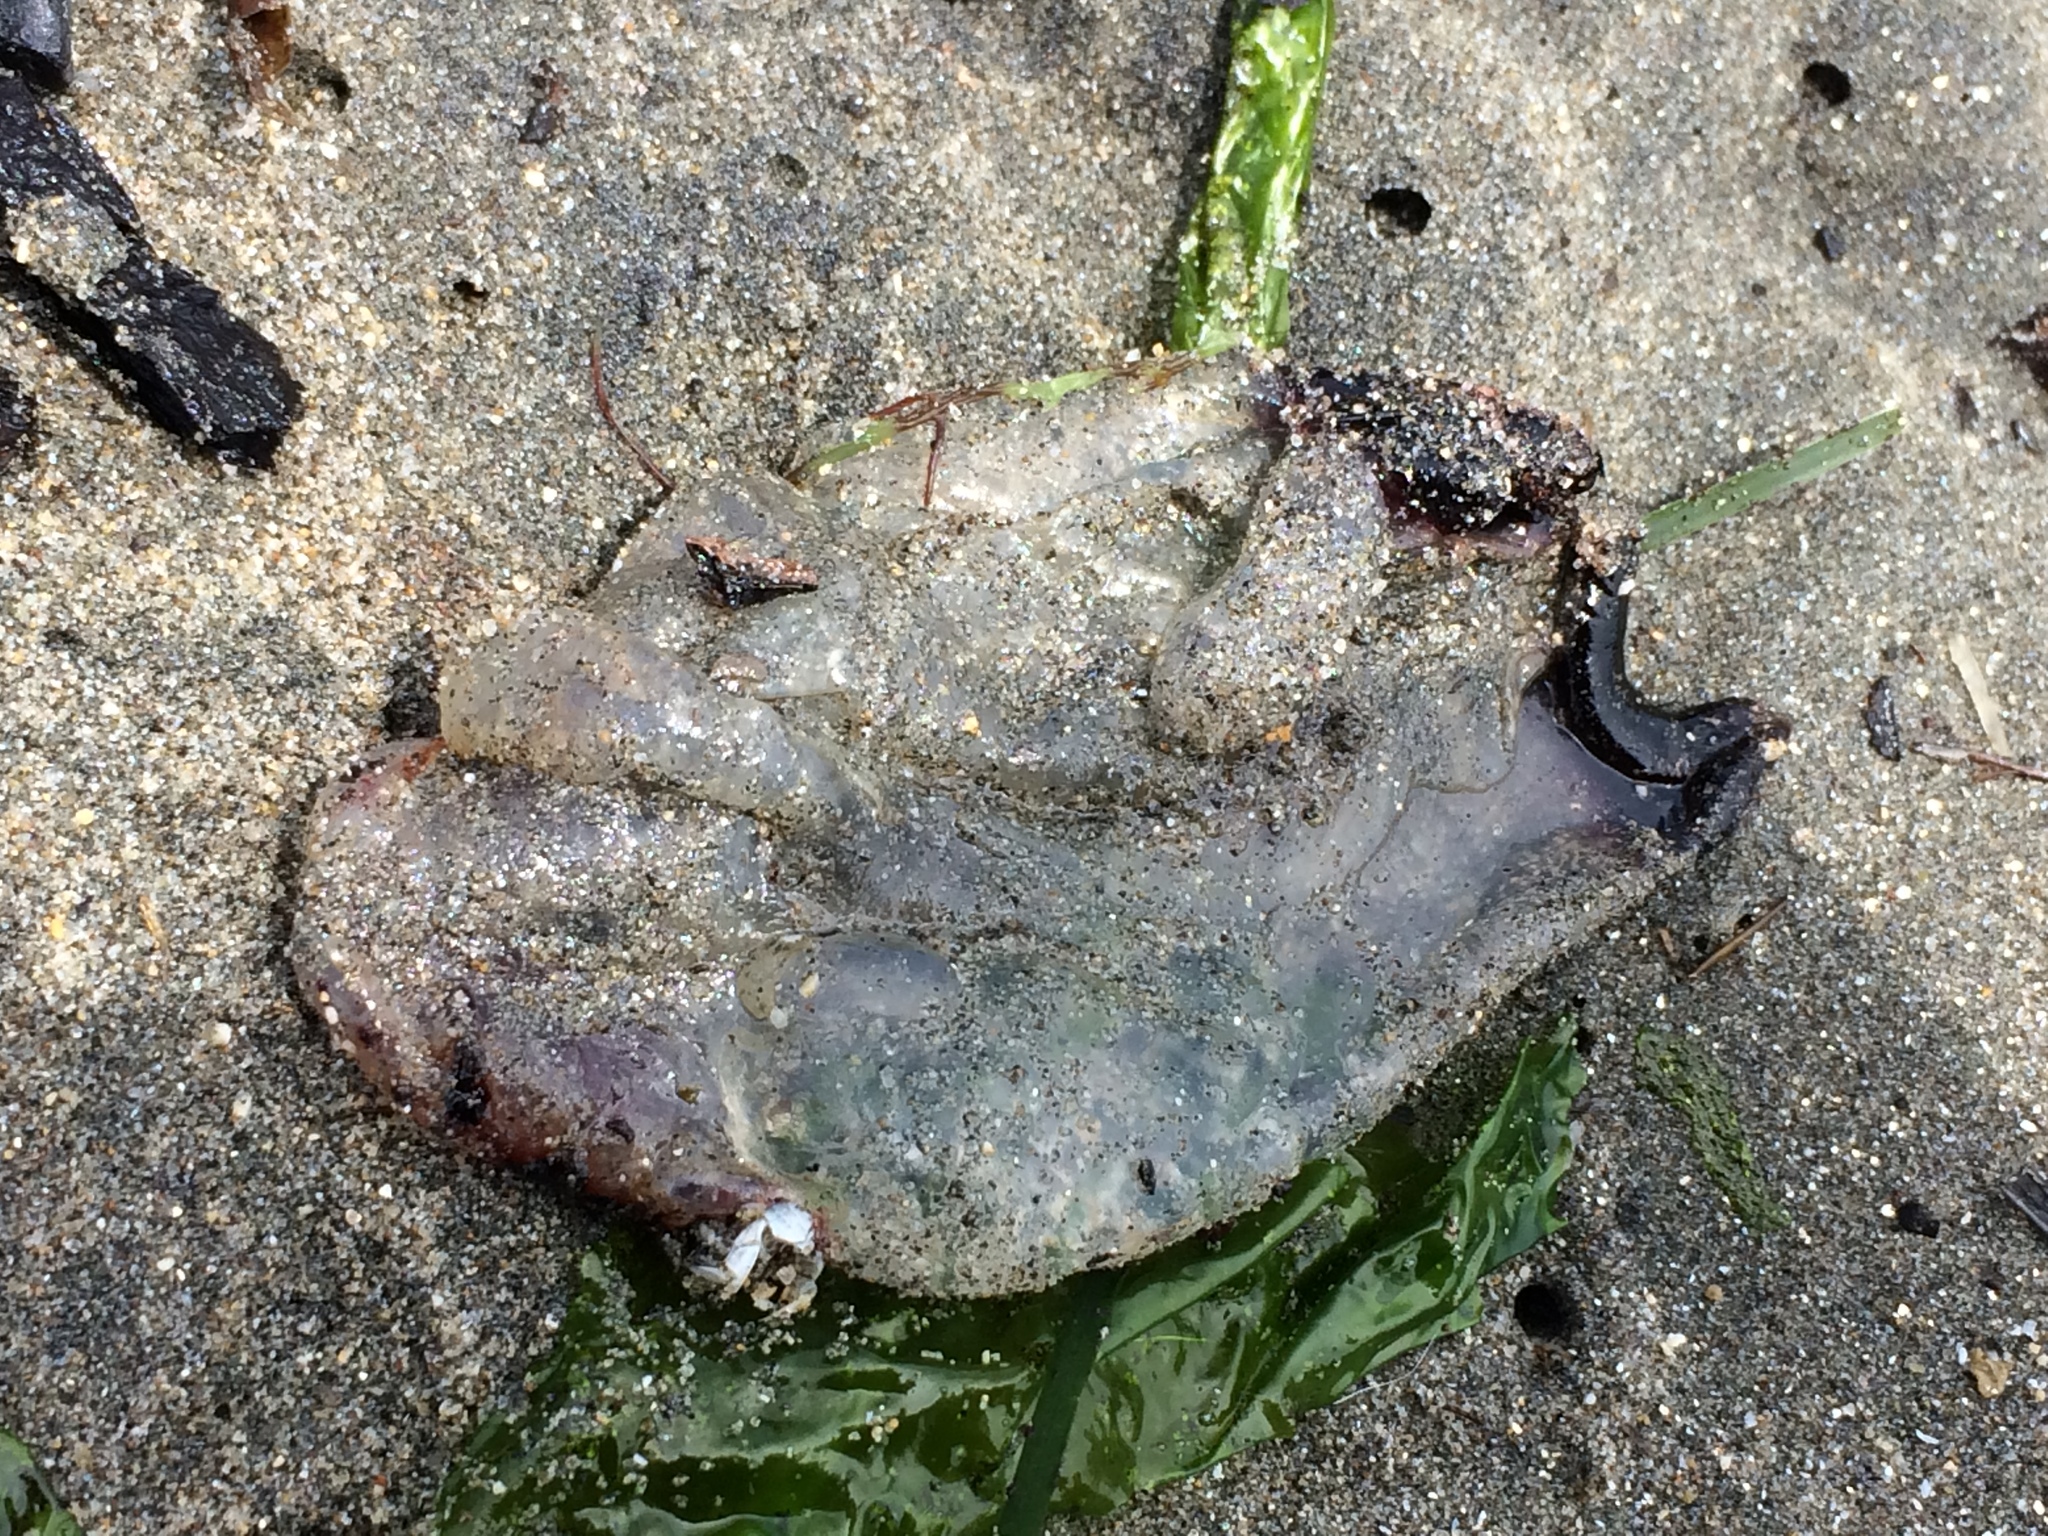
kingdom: Animalia
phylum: Cnidaria
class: Scyphozoa
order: Semaeostomeae
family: Pelagiidae
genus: Chrysaora
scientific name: Chrysaora colorata
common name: Purple-striped jellyfish
